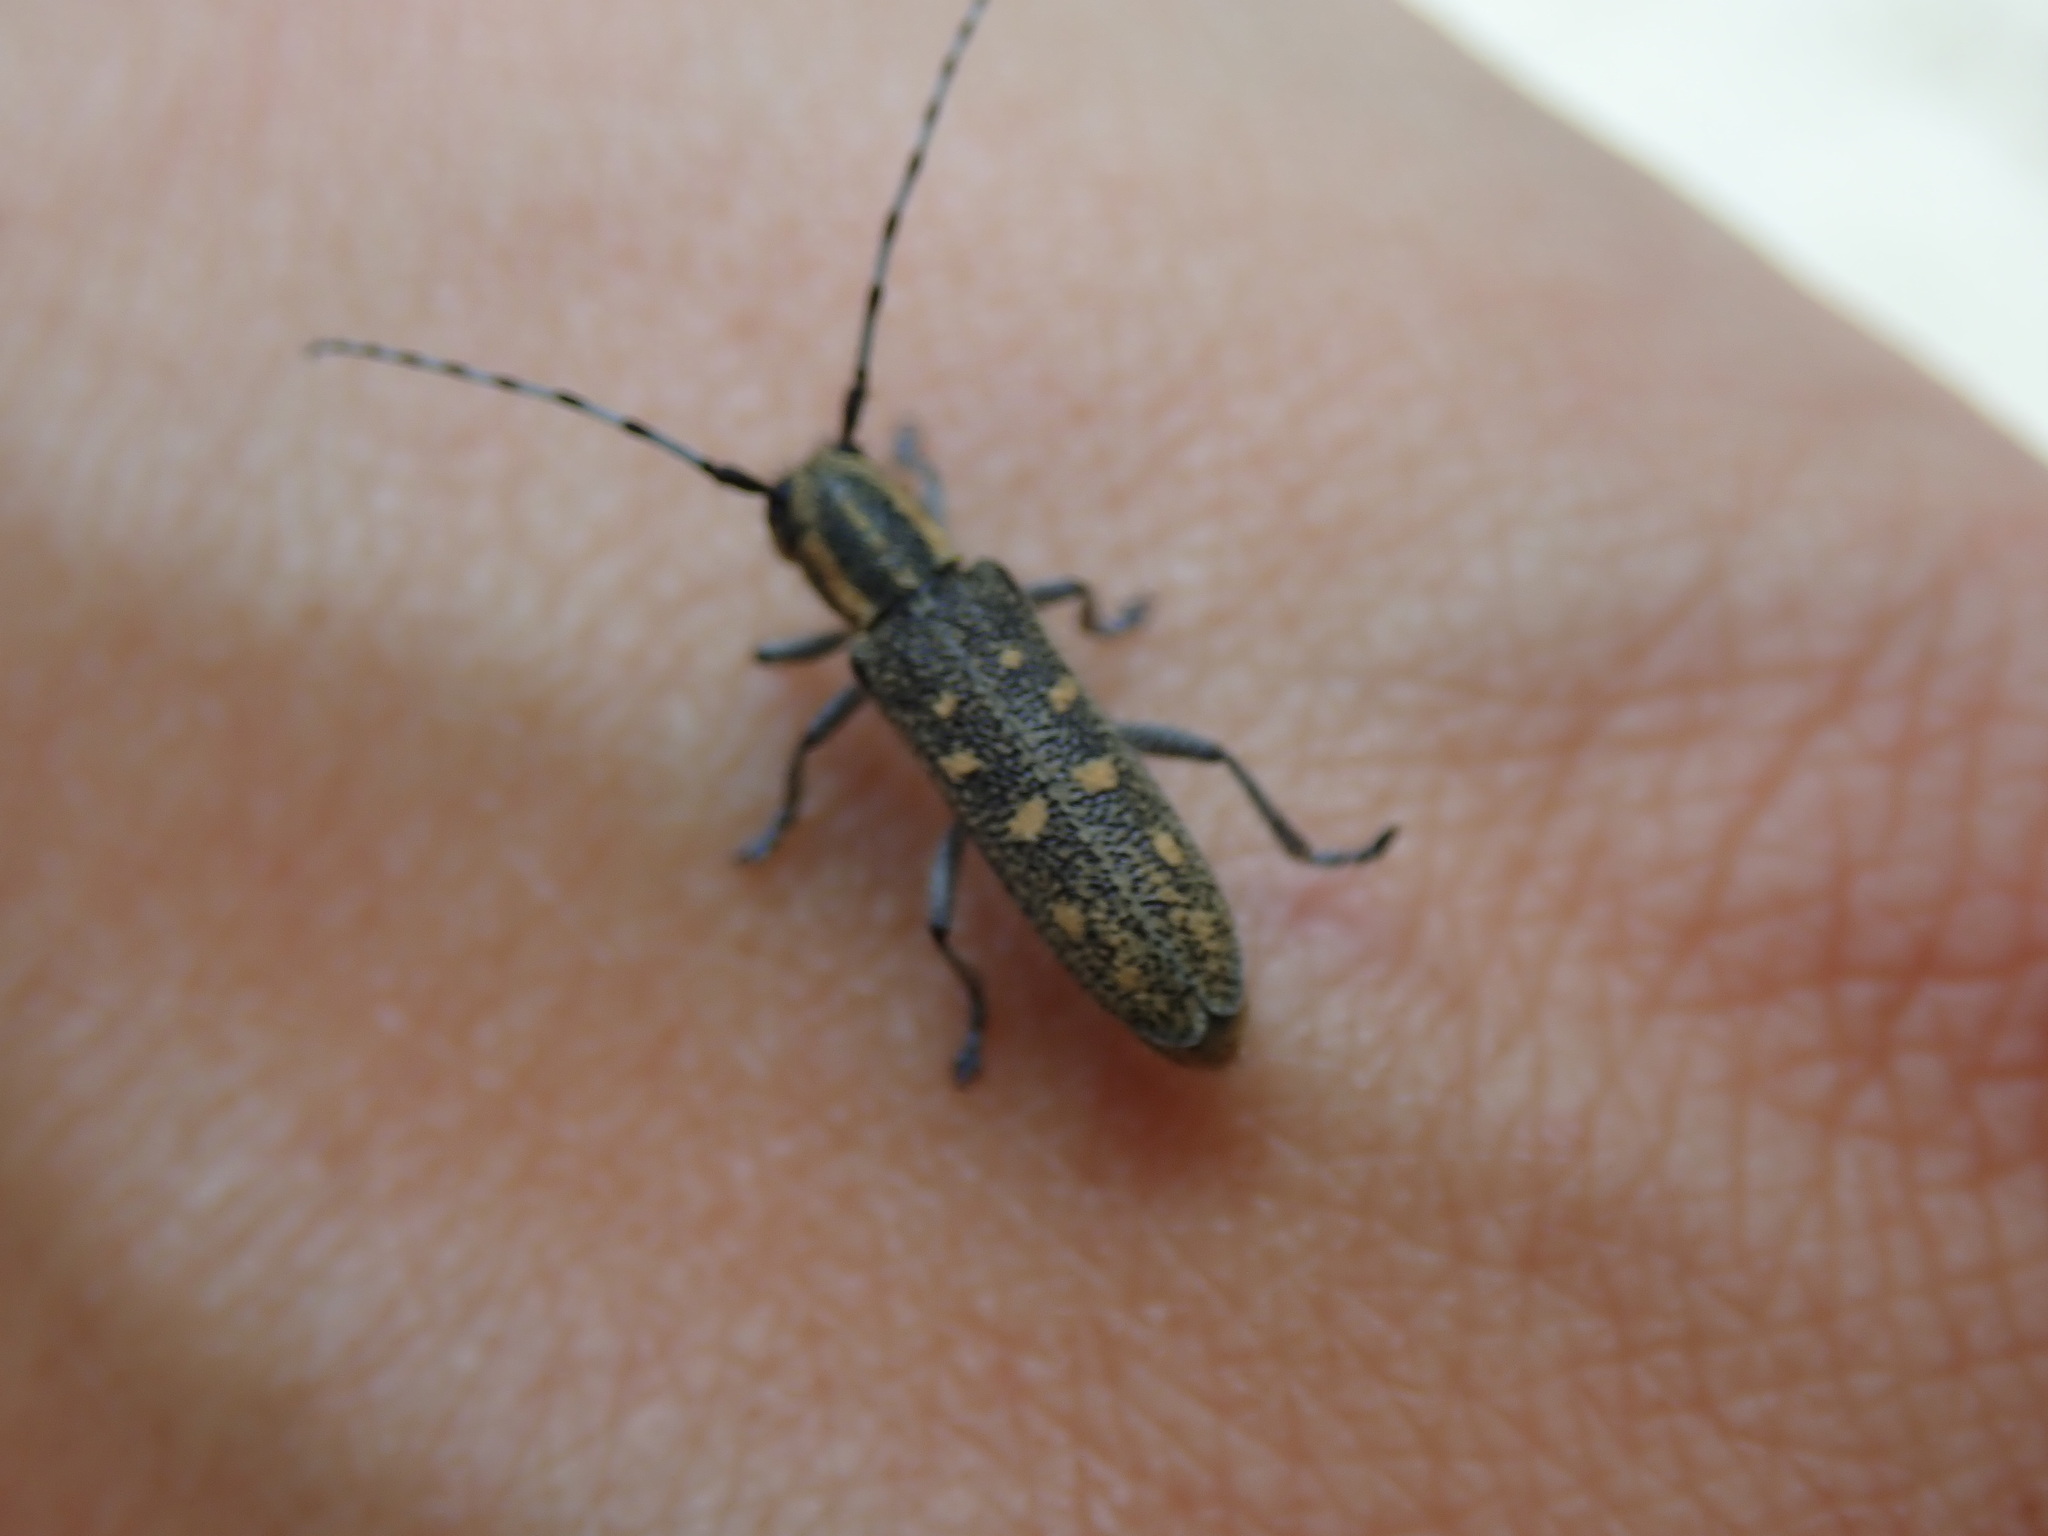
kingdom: Animalia
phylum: Arthropoda
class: Insecta
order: Coleoptera
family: Cerambycidae
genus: Saperda
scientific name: Saperda populnea
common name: Small poplar borer
